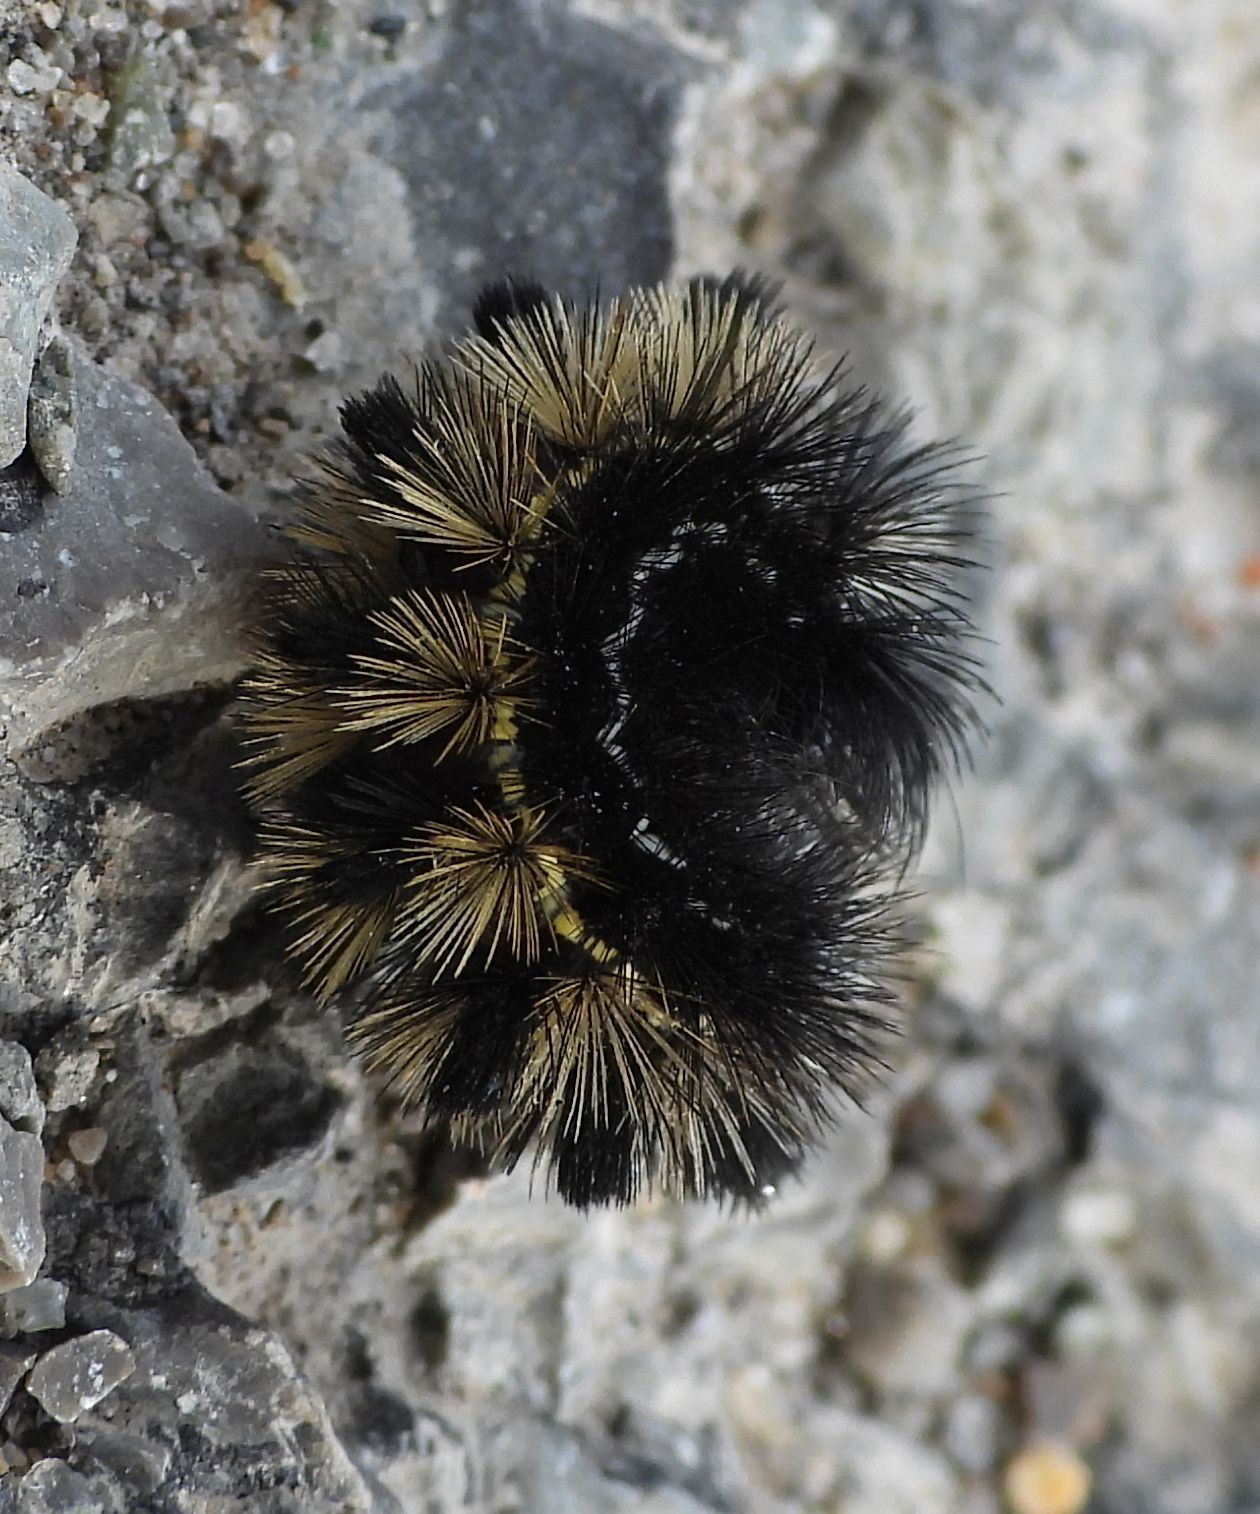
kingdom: Animalia
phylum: Arthropoda
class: Insecta
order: Lepidoptera
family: Erebidae
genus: Ctenucha
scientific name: Ctenucha virginica
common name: Virginia ctenucha moth
